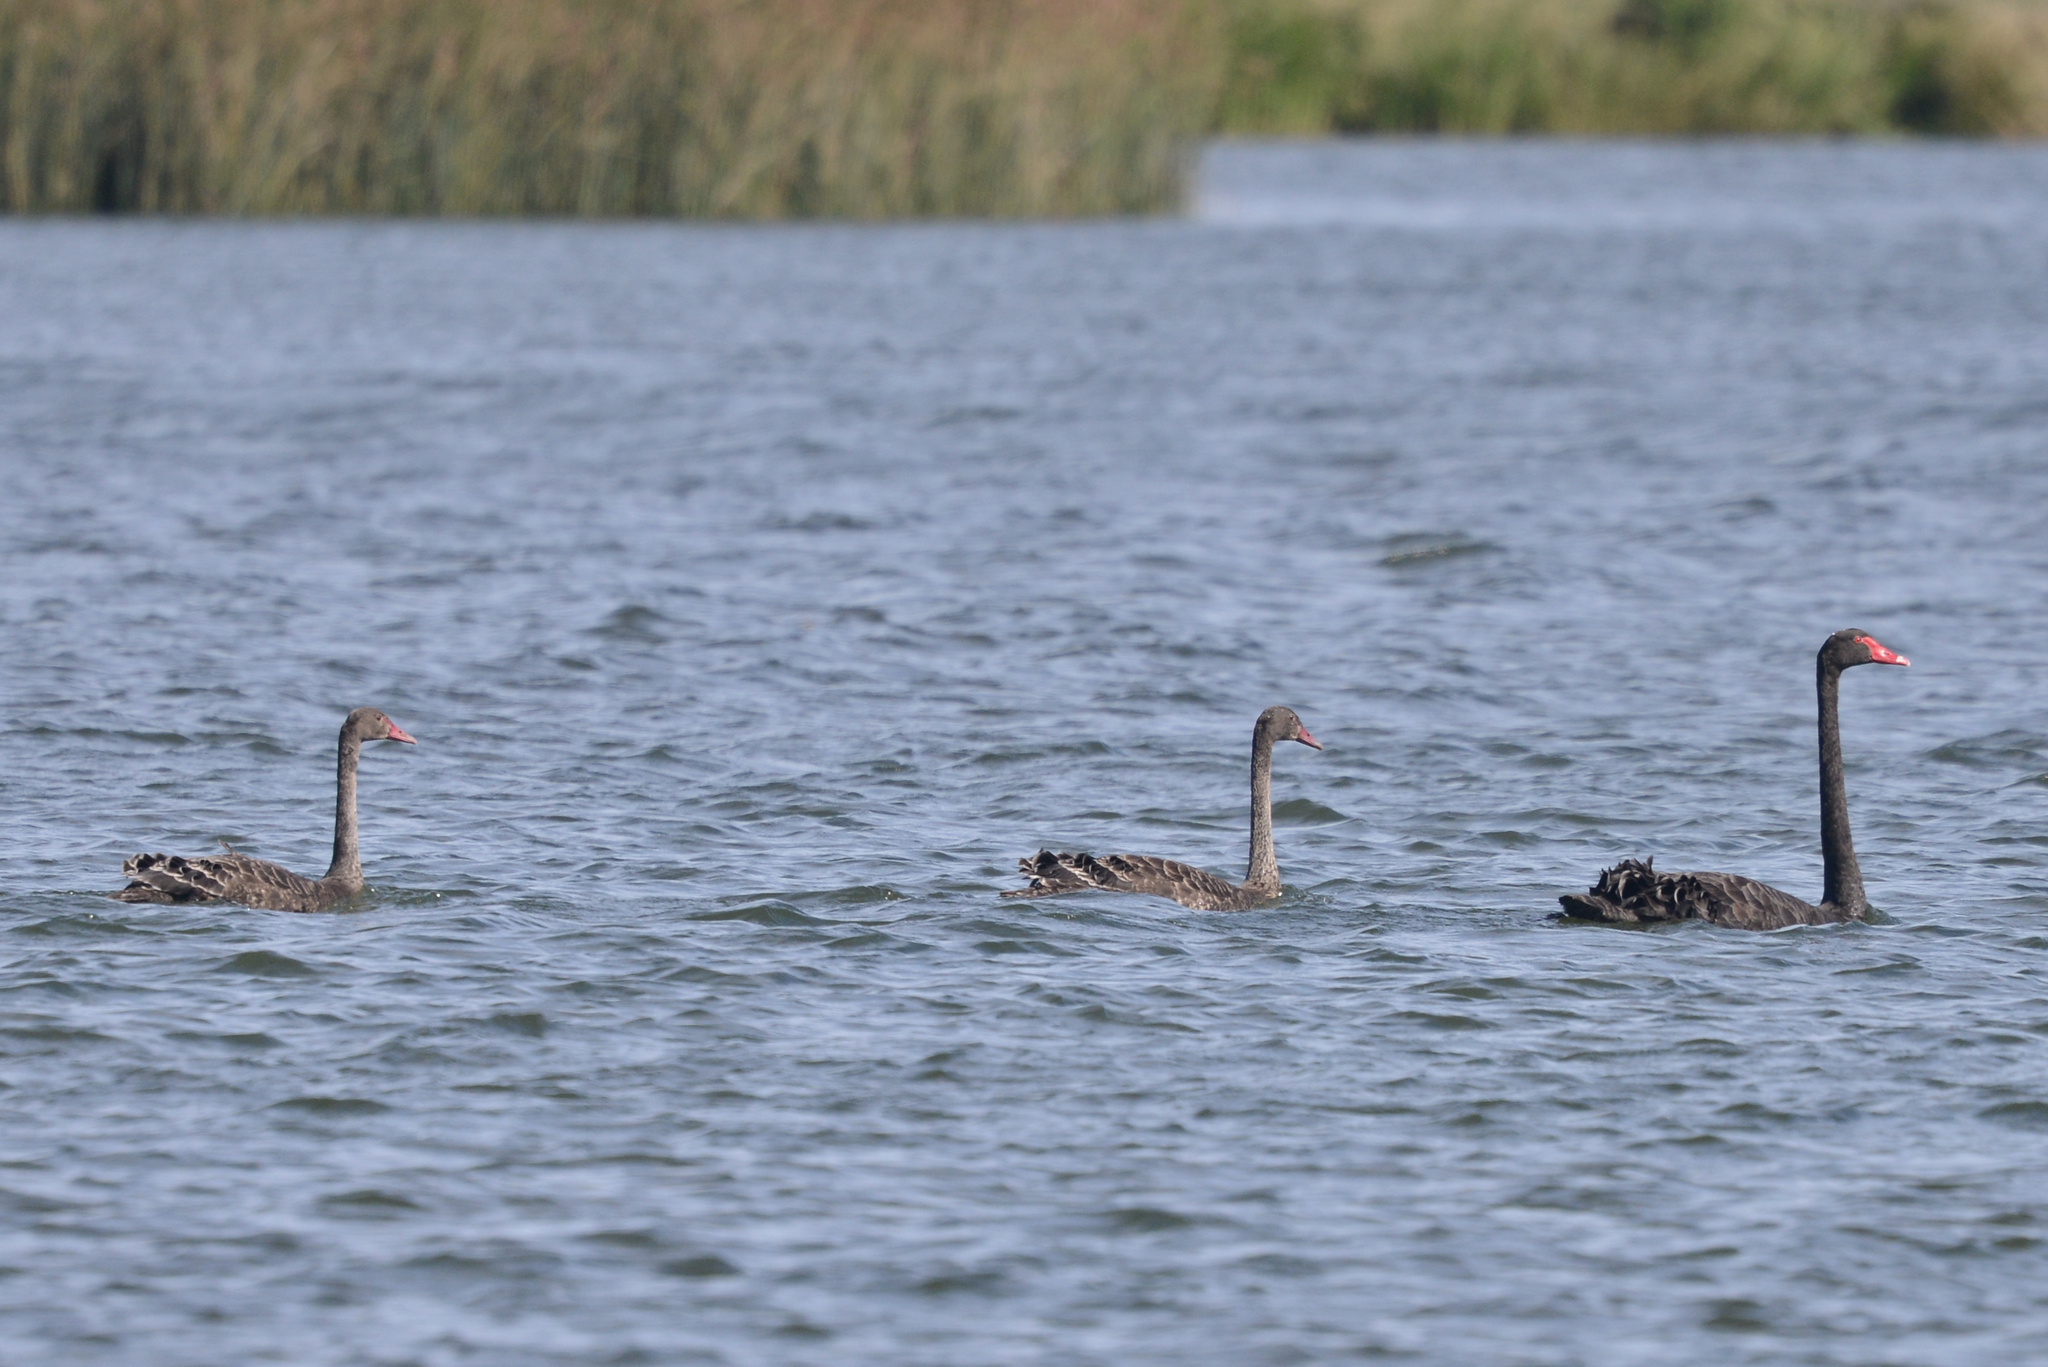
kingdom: Animalia
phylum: Chordata
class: Aves
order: Anseriformes
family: Anatidae
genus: Cygnus
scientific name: Cygnus atratus
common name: Black swan
